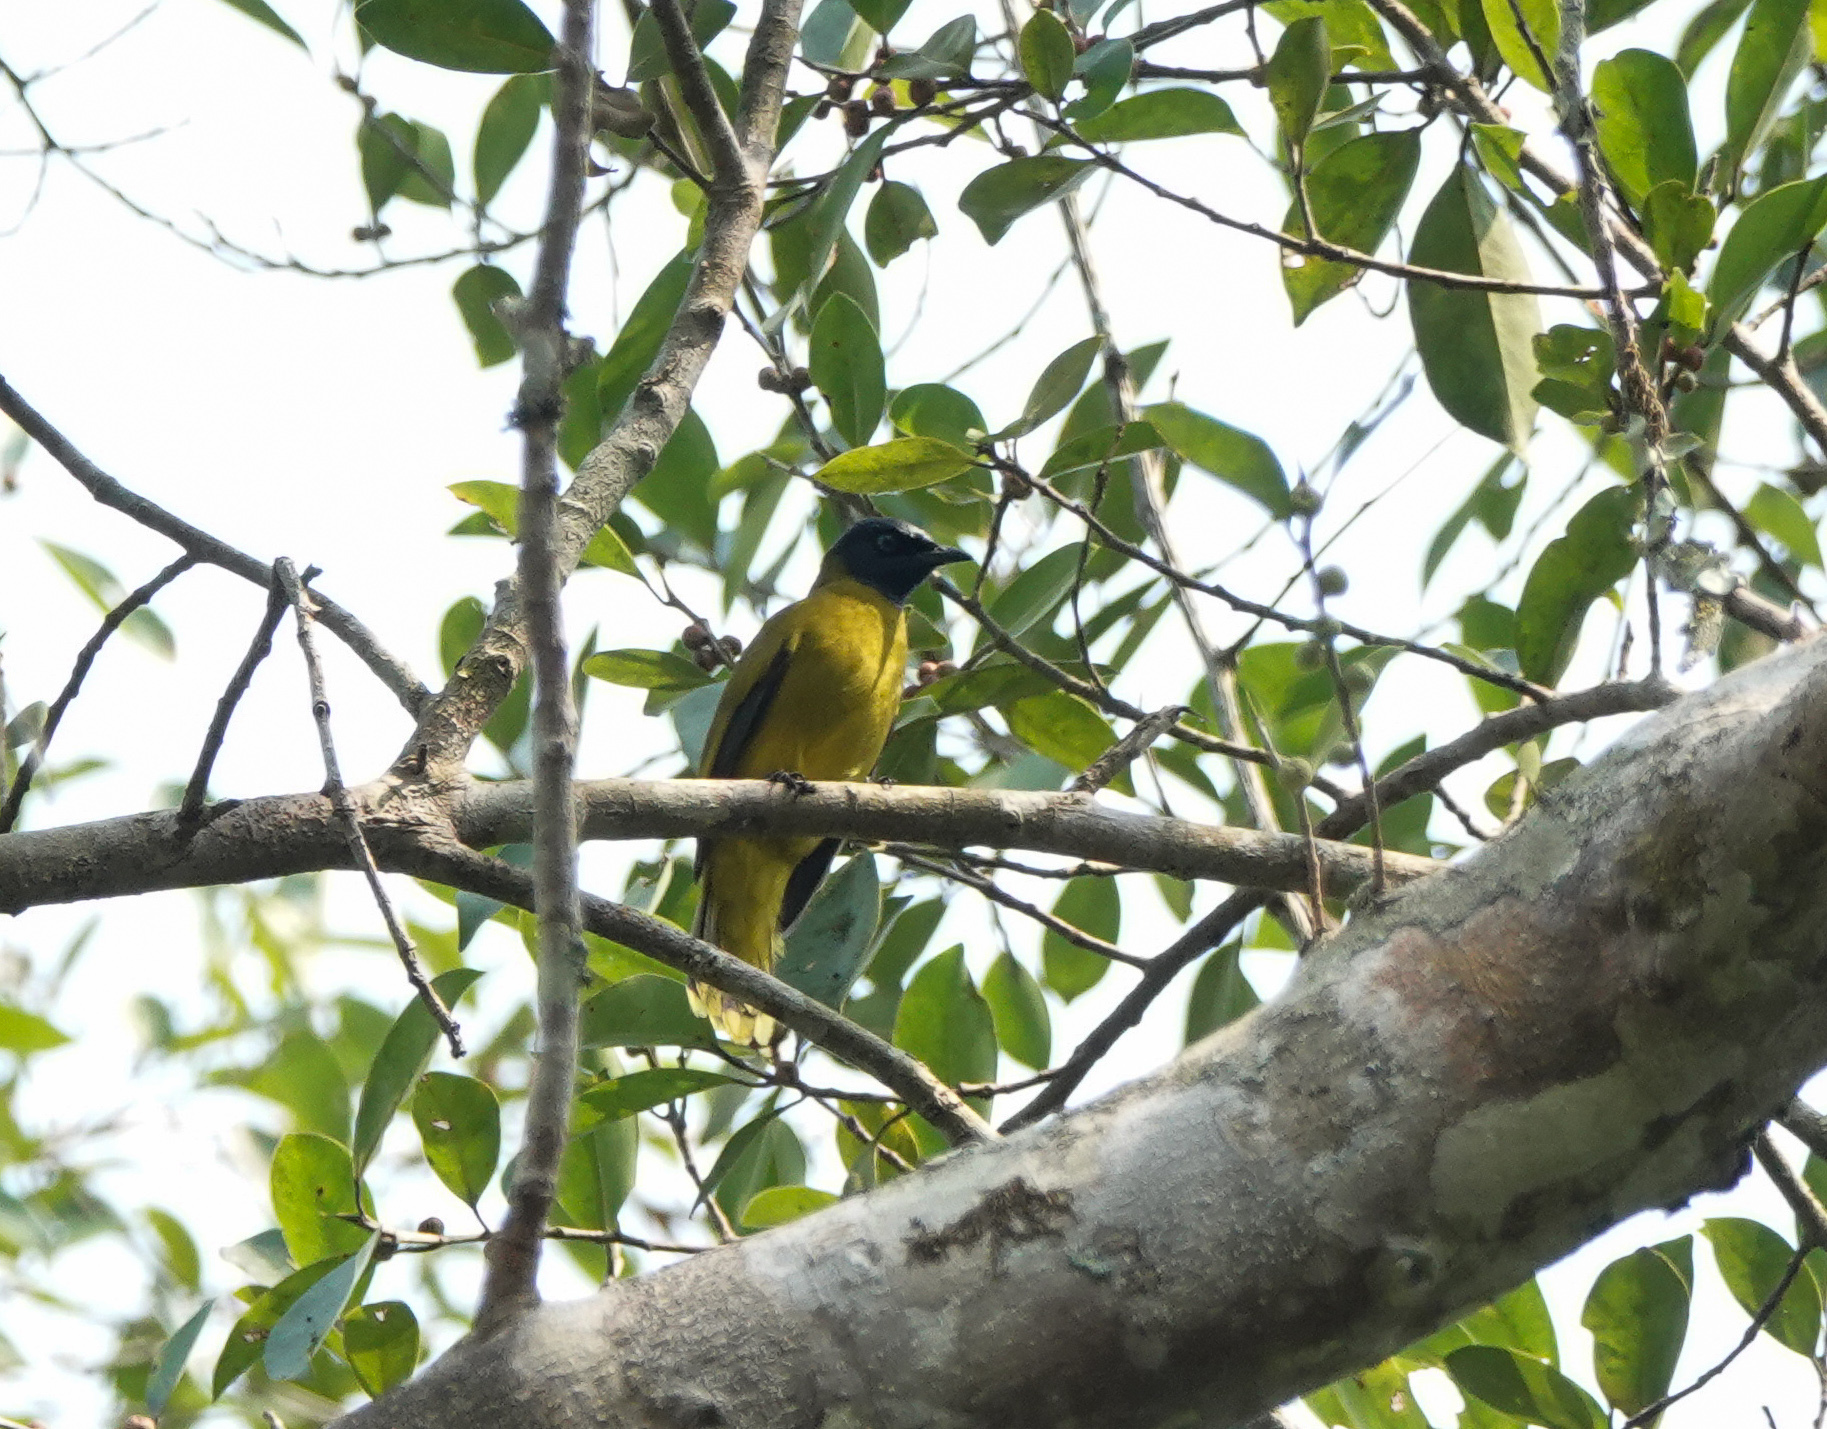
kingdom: Animalia
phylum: Chordata
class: Aves
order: Passeriformes
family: Pycnonotidae
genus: Microtarsus
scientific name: Microtarsus
